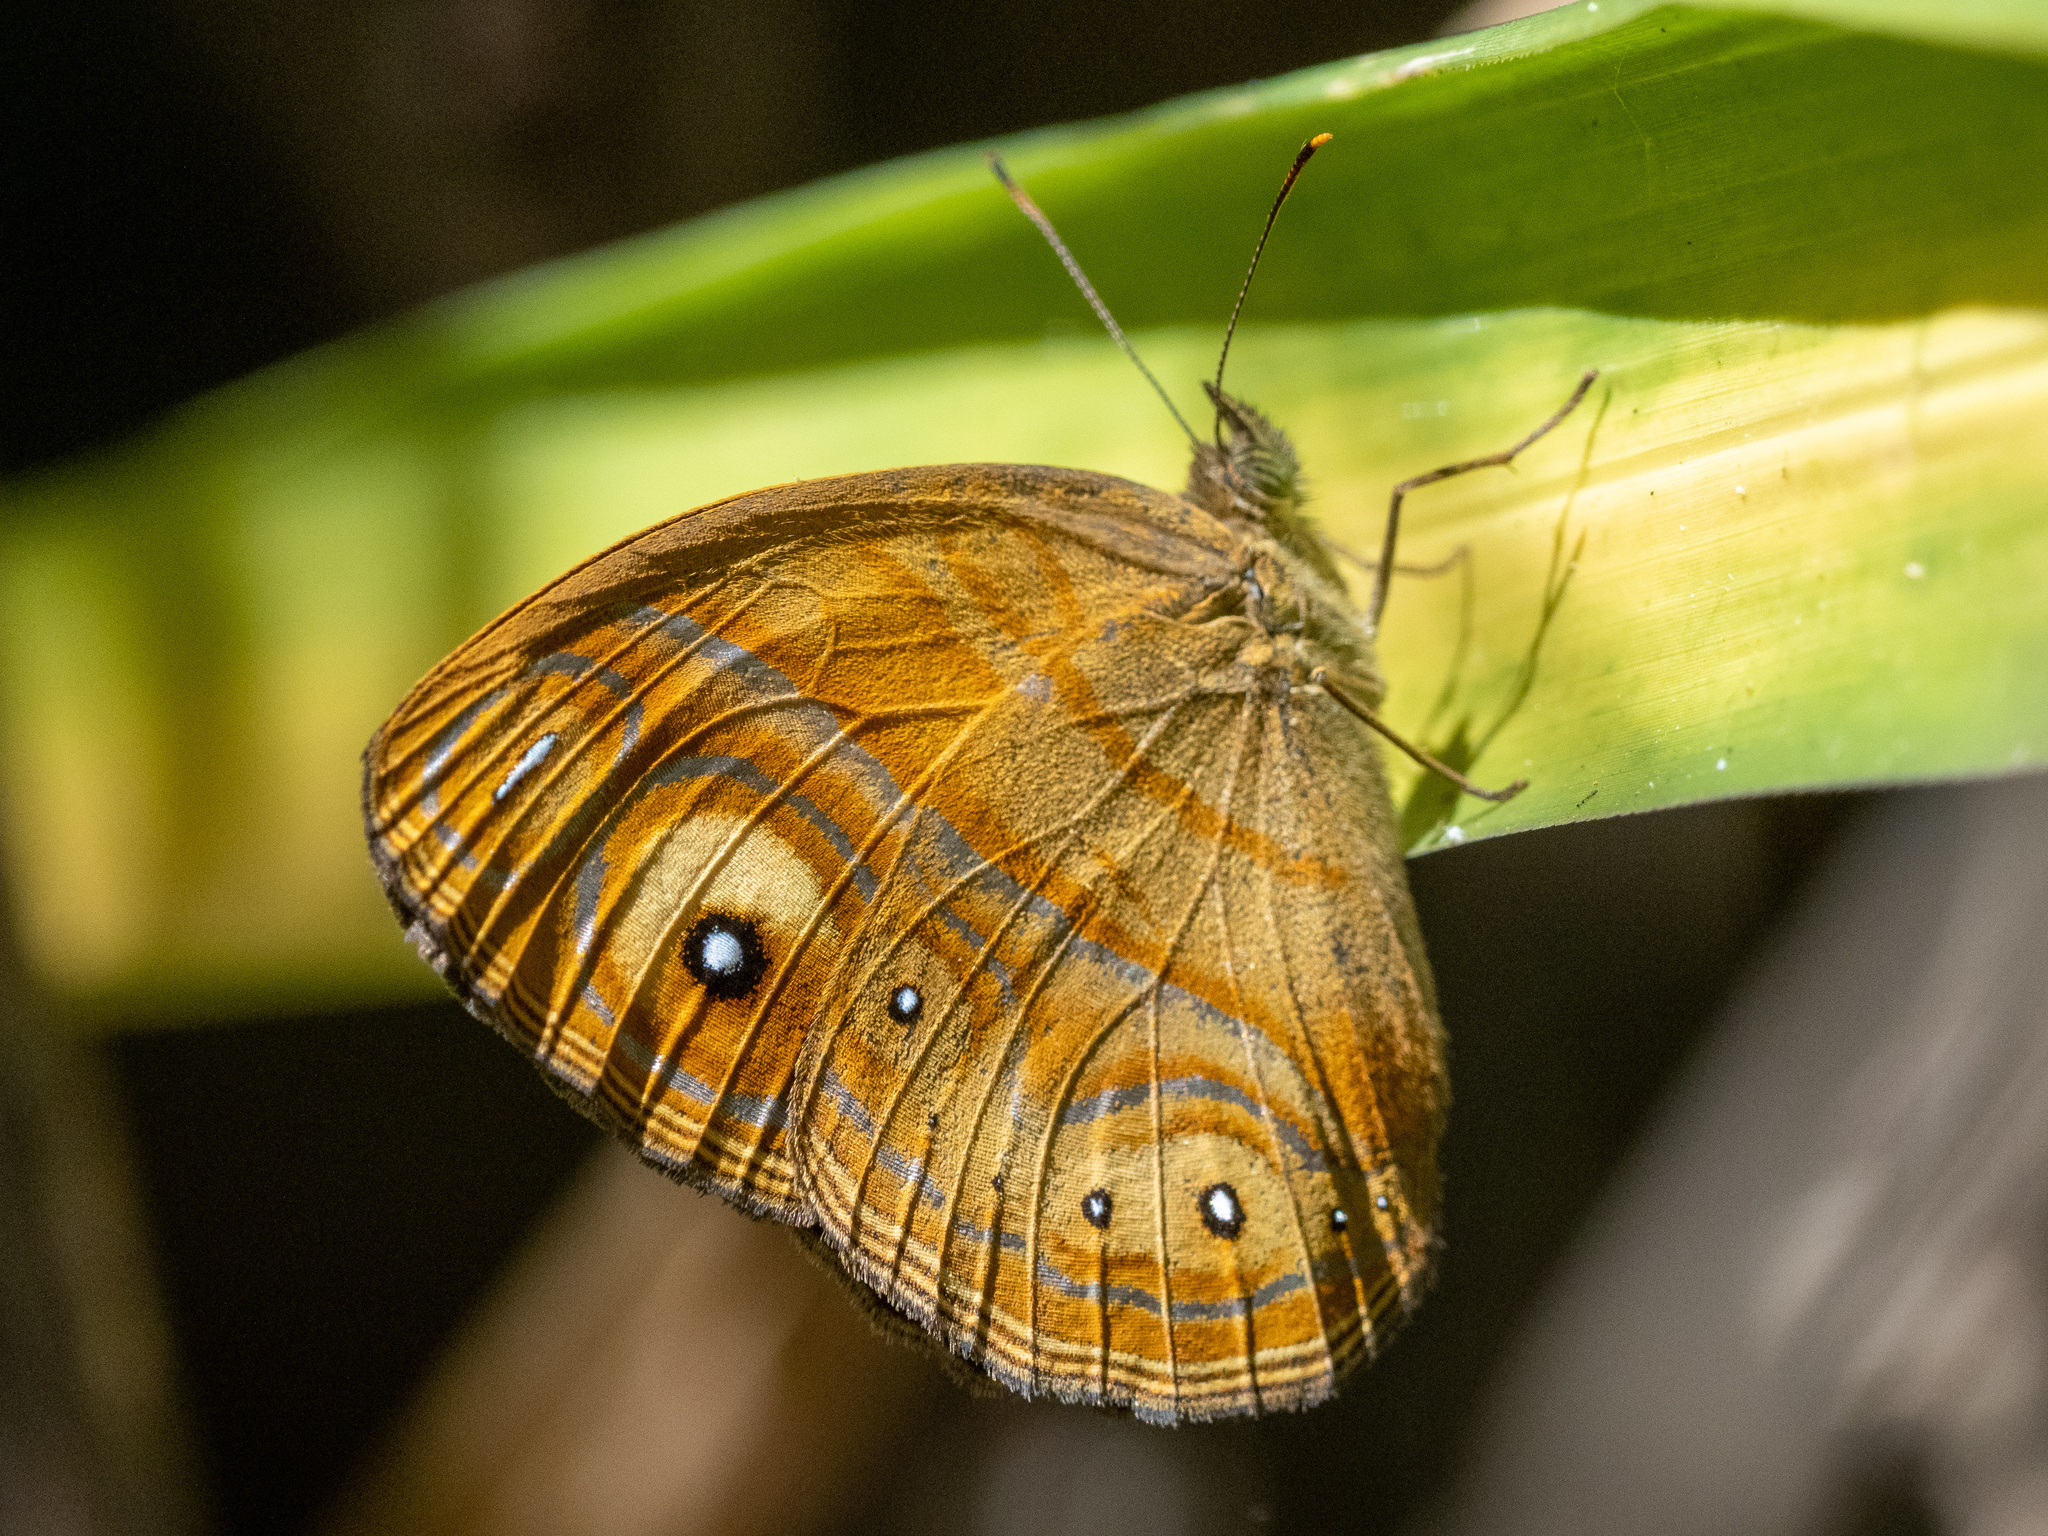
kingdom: Animalia
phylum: Arthropoda
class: Insecta
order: Lepidoptera
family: Nymphalidae
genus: Mycalesis
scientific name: Mycalesis patnia
